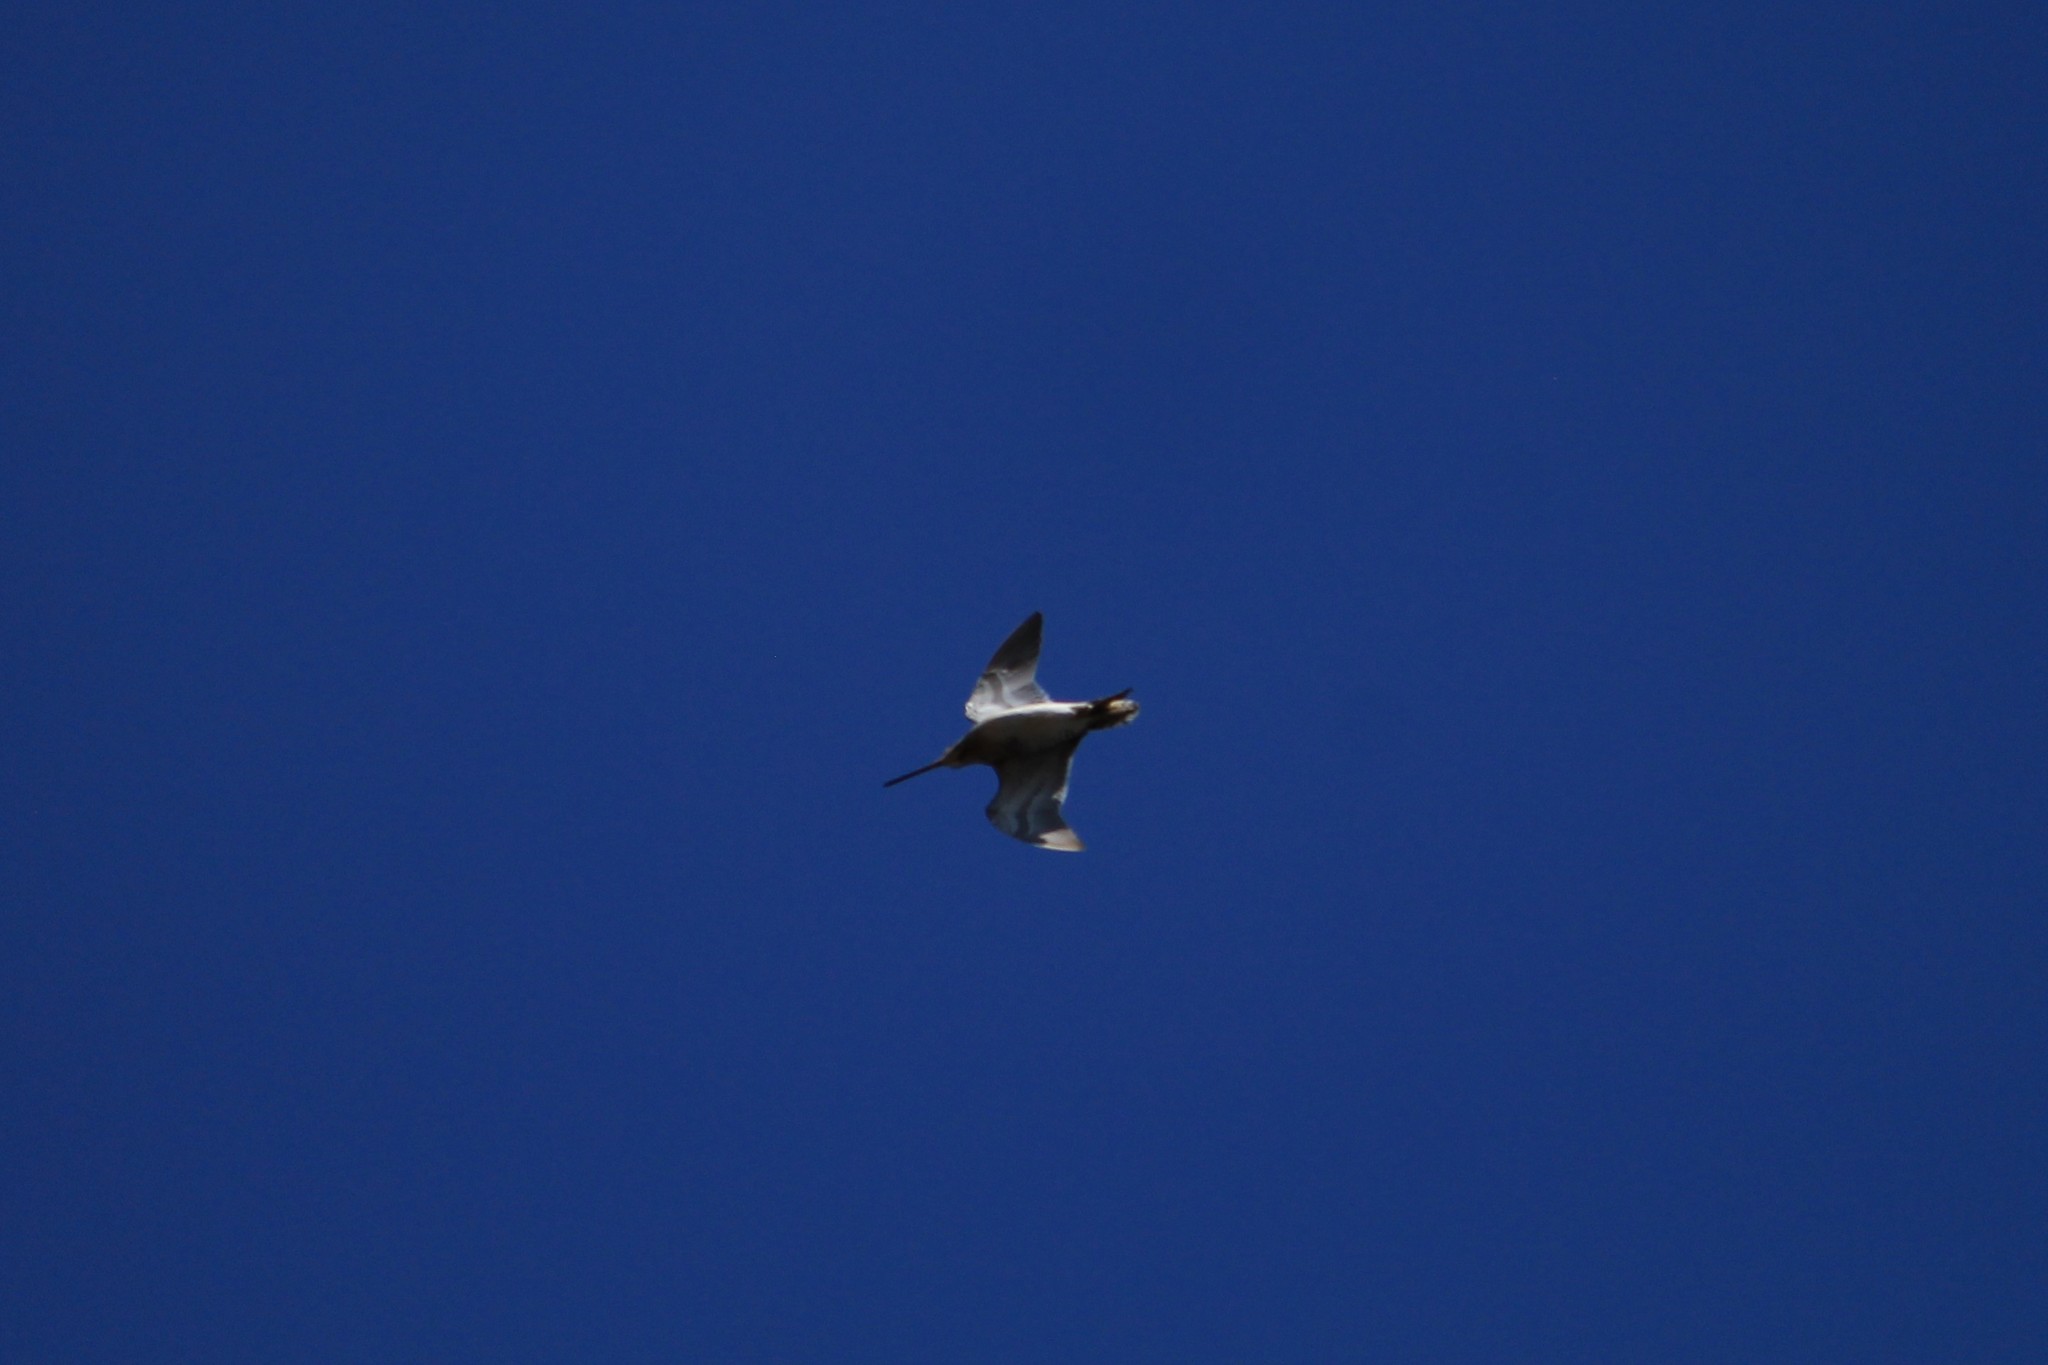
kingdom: Animalia
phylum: Chordata
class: Aves
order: Charadriiformes
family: Scolopacidae
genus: Gallinago
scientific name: Gallinago gallinago
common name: Common snipe
